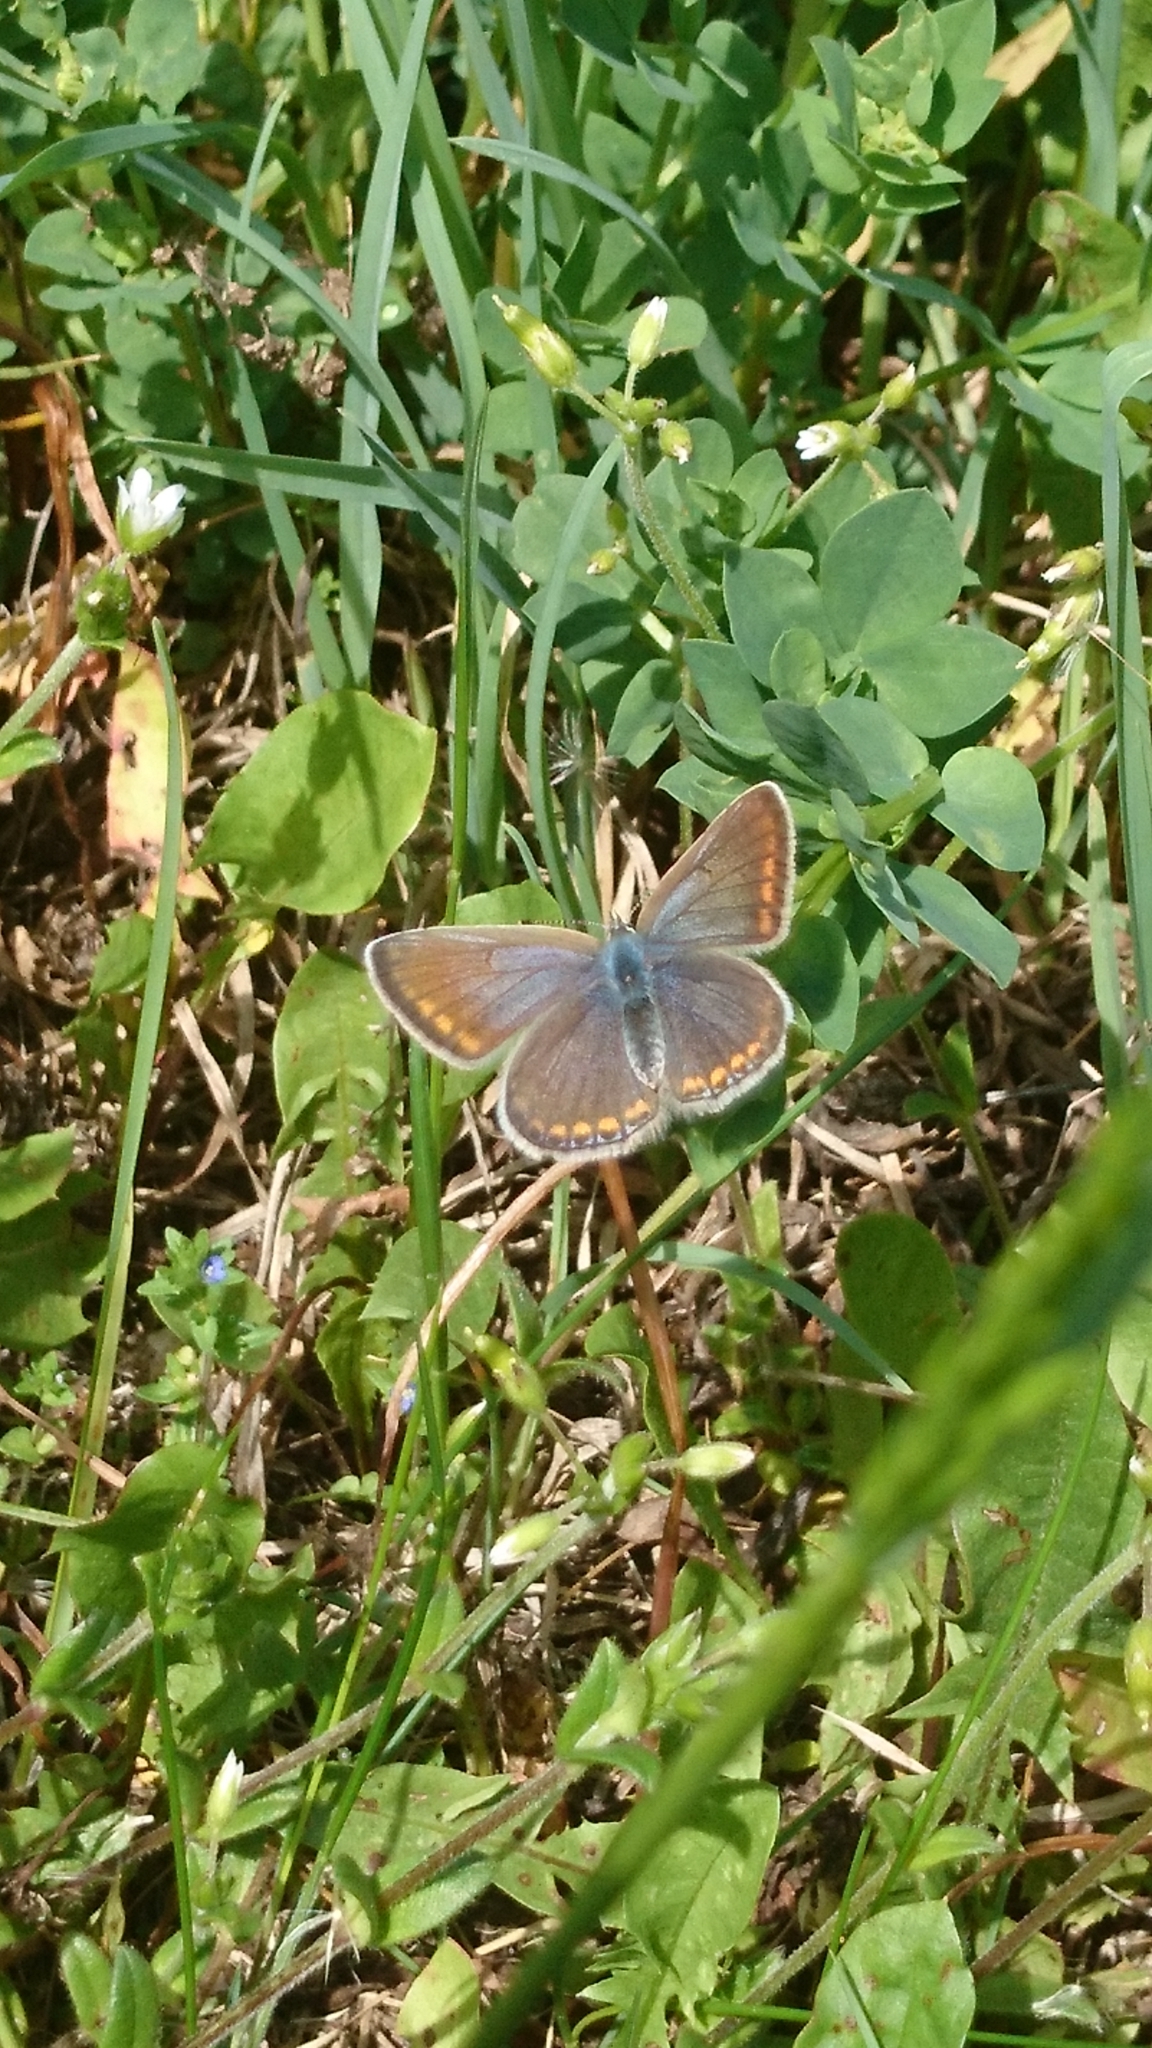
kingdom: Animalia
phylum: Arthropoda
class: Insecta
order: Lepidoptera
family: Lycaenidae
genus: Polyommatus
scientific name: Polyommatus icarus
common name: Common blue
